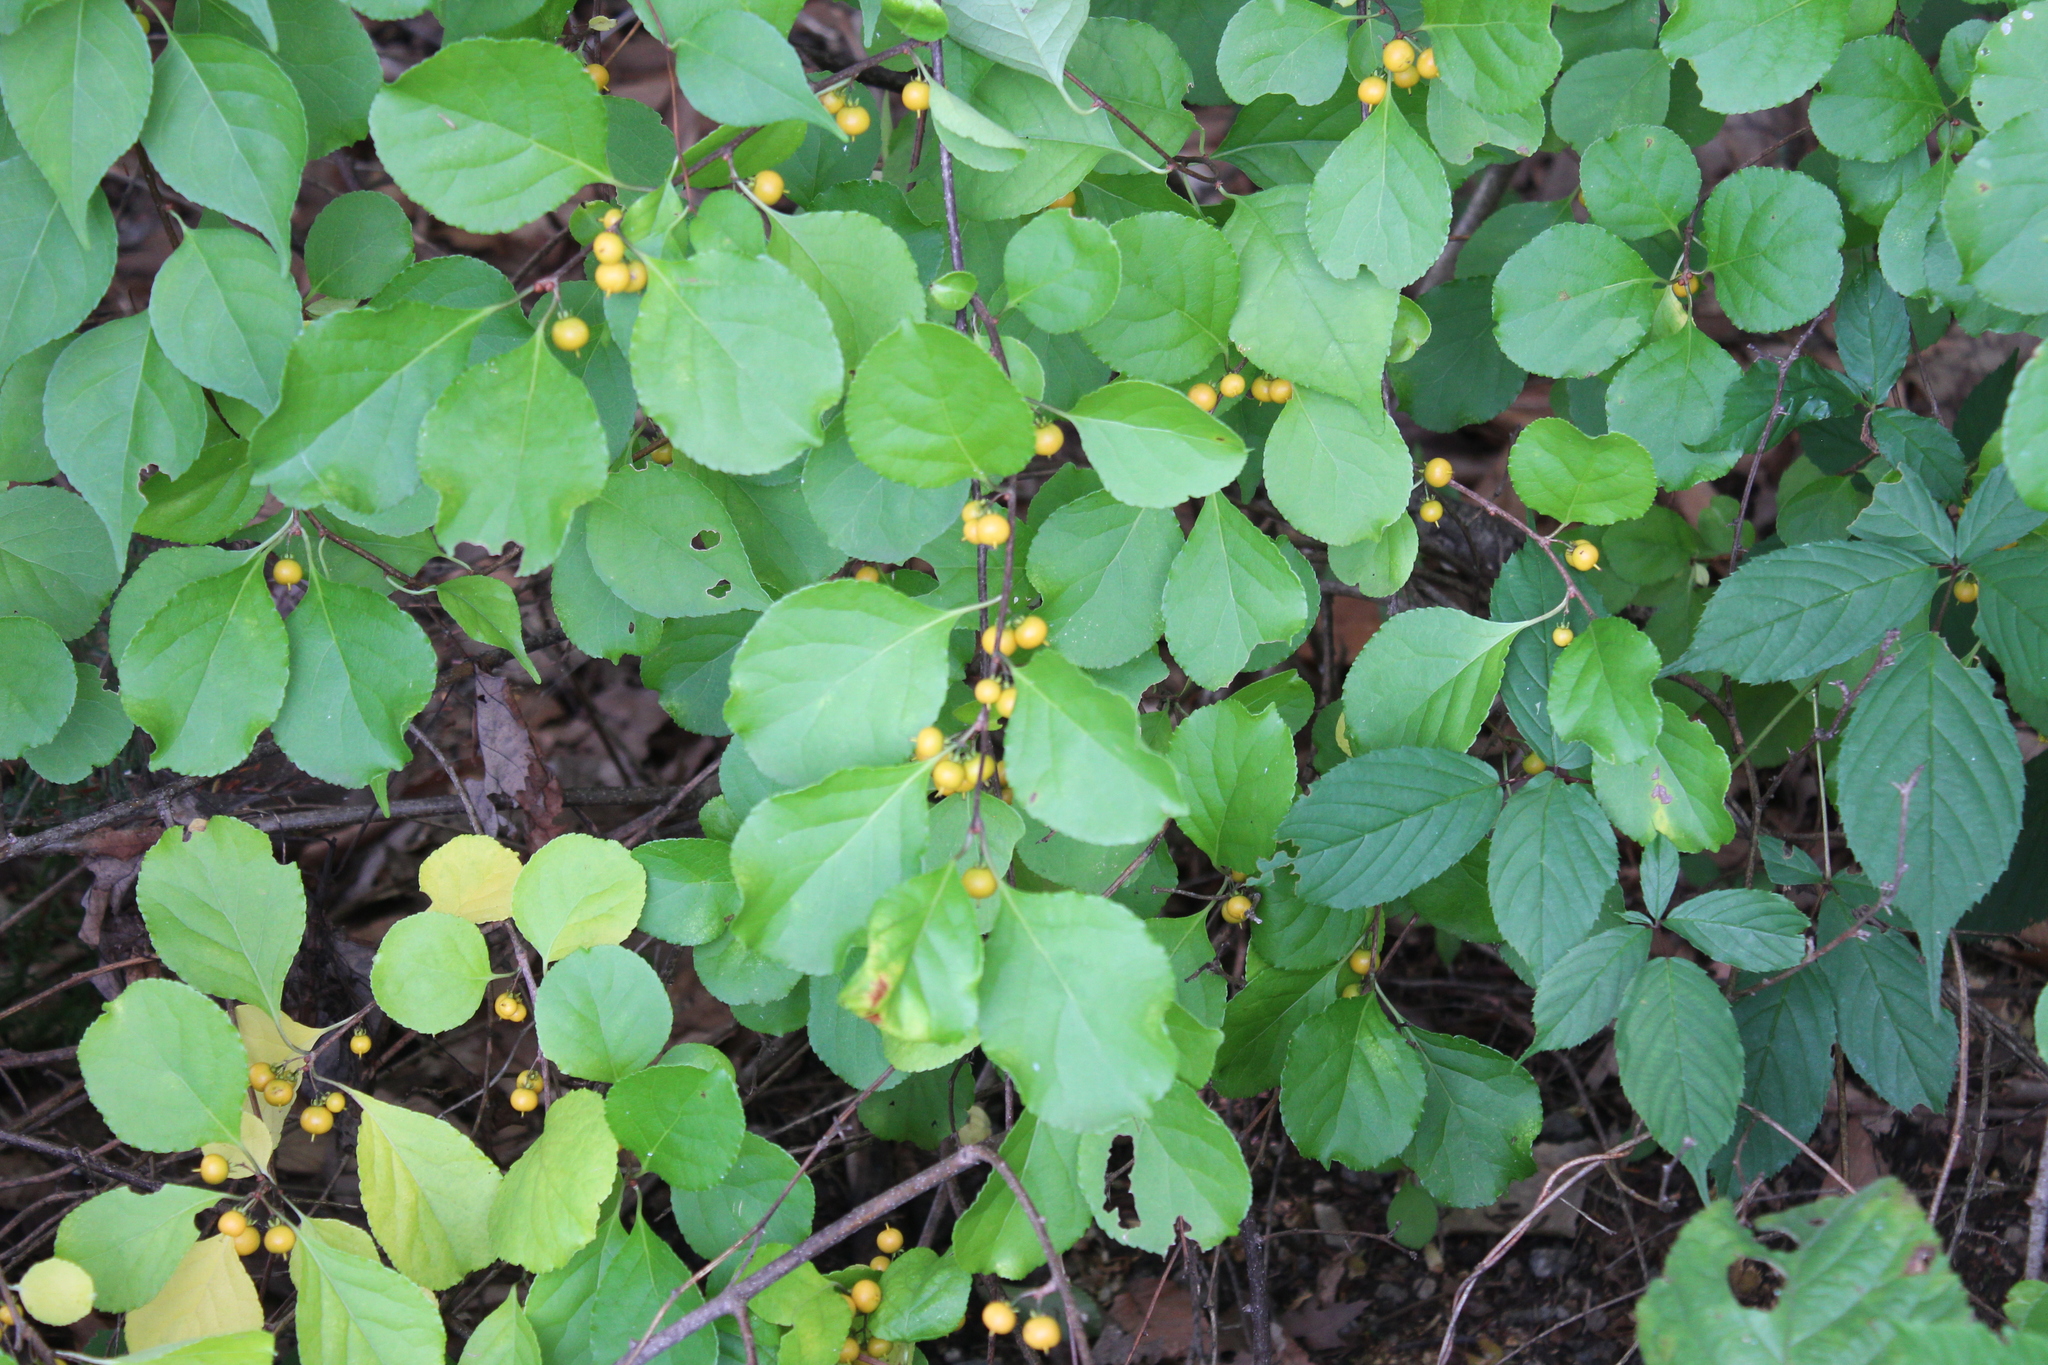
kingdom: Plantae
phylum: Tracheophyta
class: Magnoliopsida
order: Celastrales
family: Celastraceae
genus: Celastrus
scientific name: Celastrus orbiculatus
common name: Oriental bittersweet
